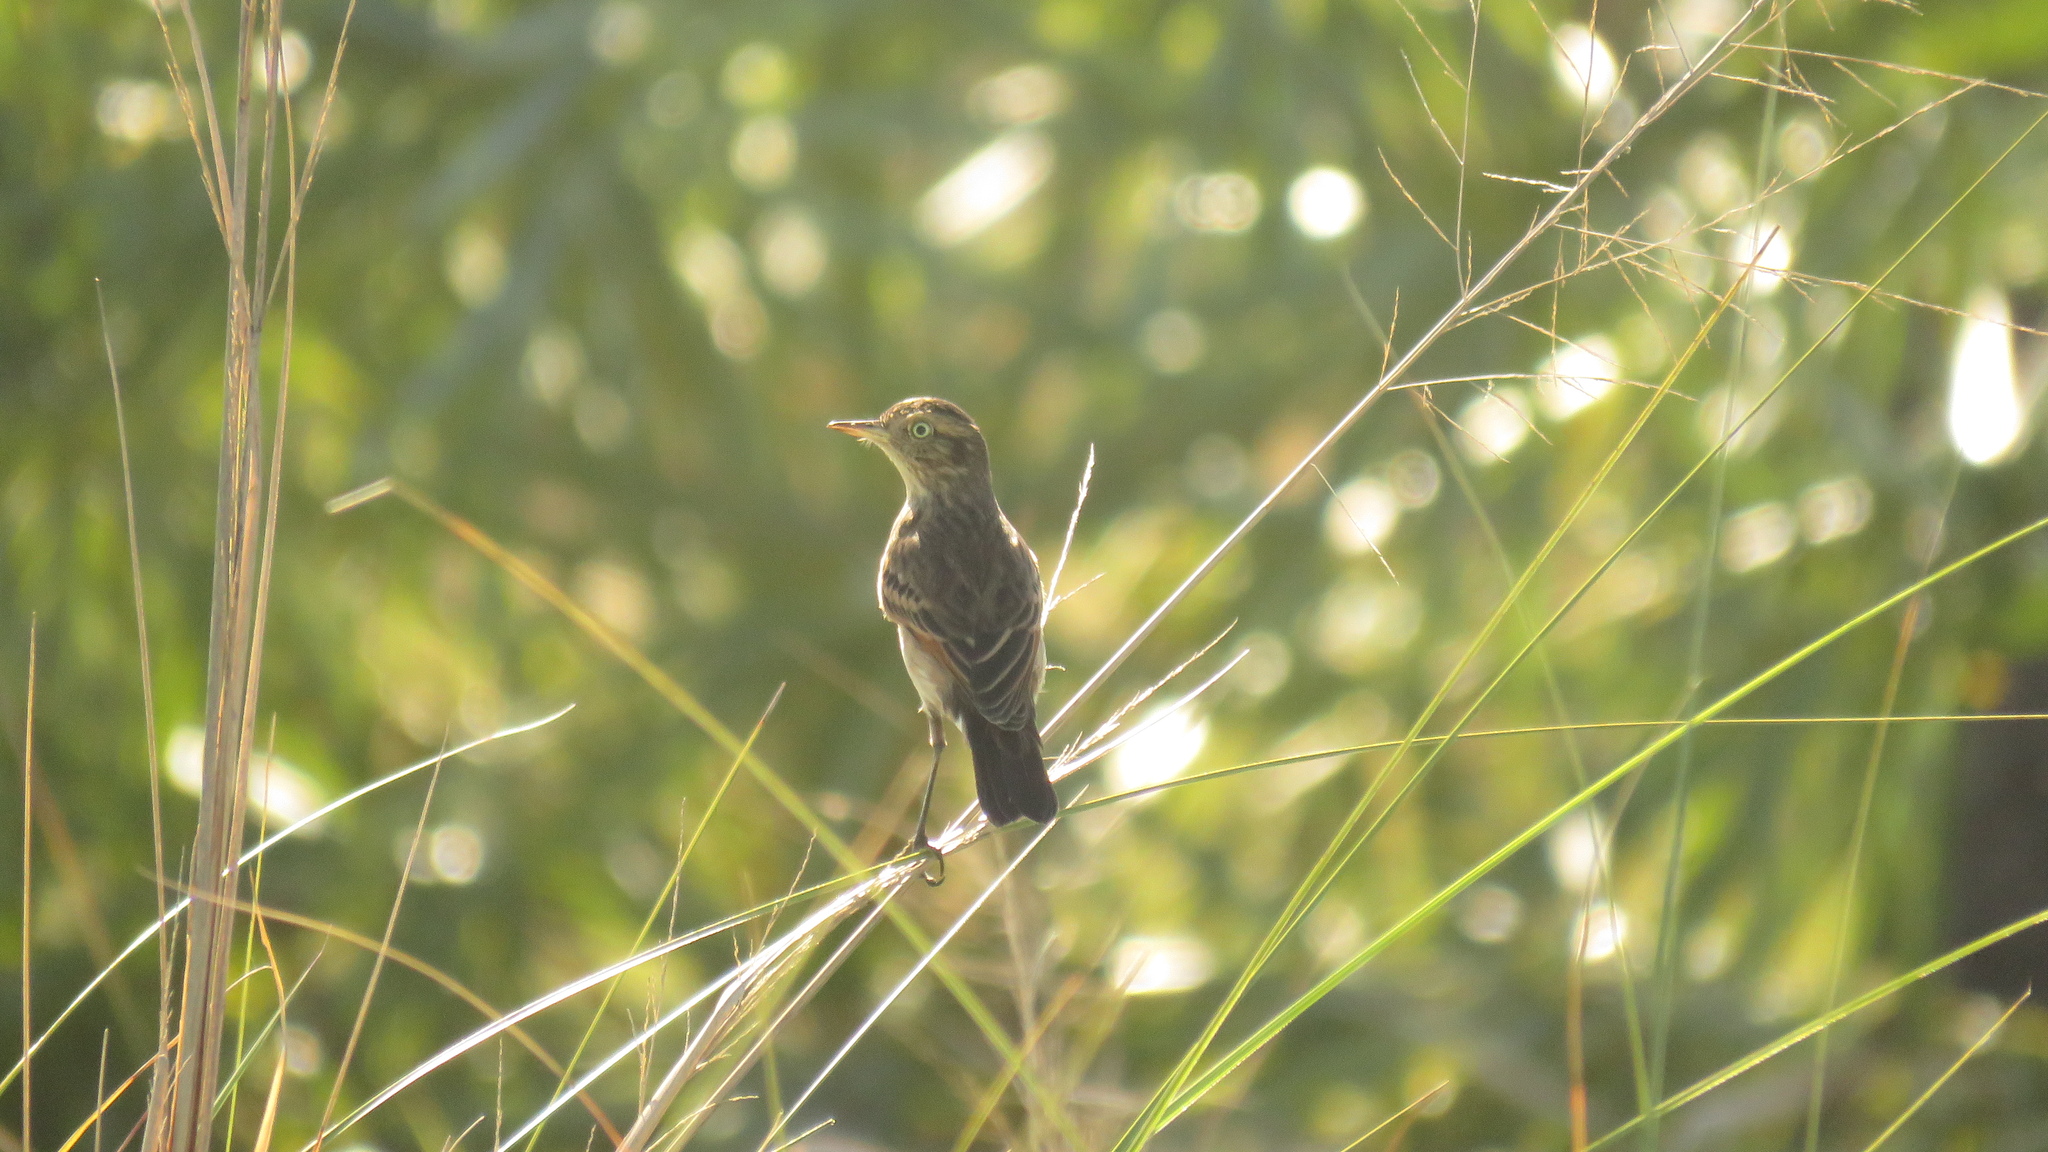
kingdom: Animalia
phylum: Chordata
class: Aves
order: Passeriformes
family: Tyrannidae
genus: Hymenops
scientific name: Hymenops perspicillatus
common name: Spectacled tyrant
